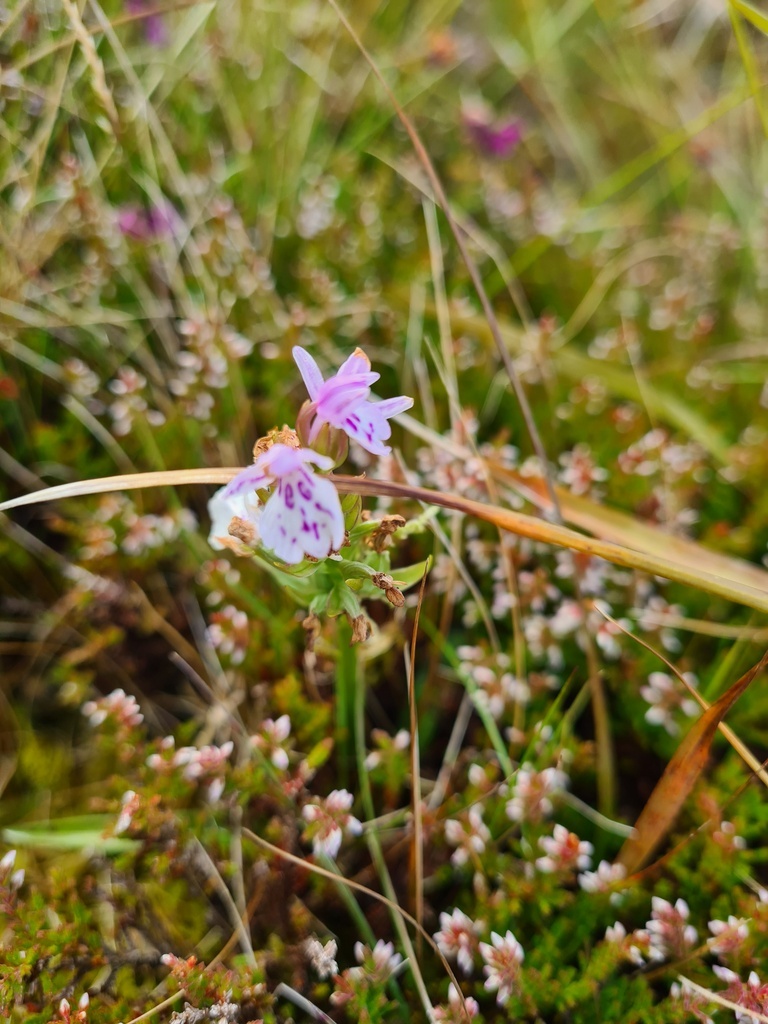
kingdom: Plantae
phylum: Tracheophyta
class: Liliopsida
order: Asparagales
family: Orchidaceae
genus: Dactylorhiza
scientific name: Dactylorhiza maculata
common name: Heath spotted-orchid
